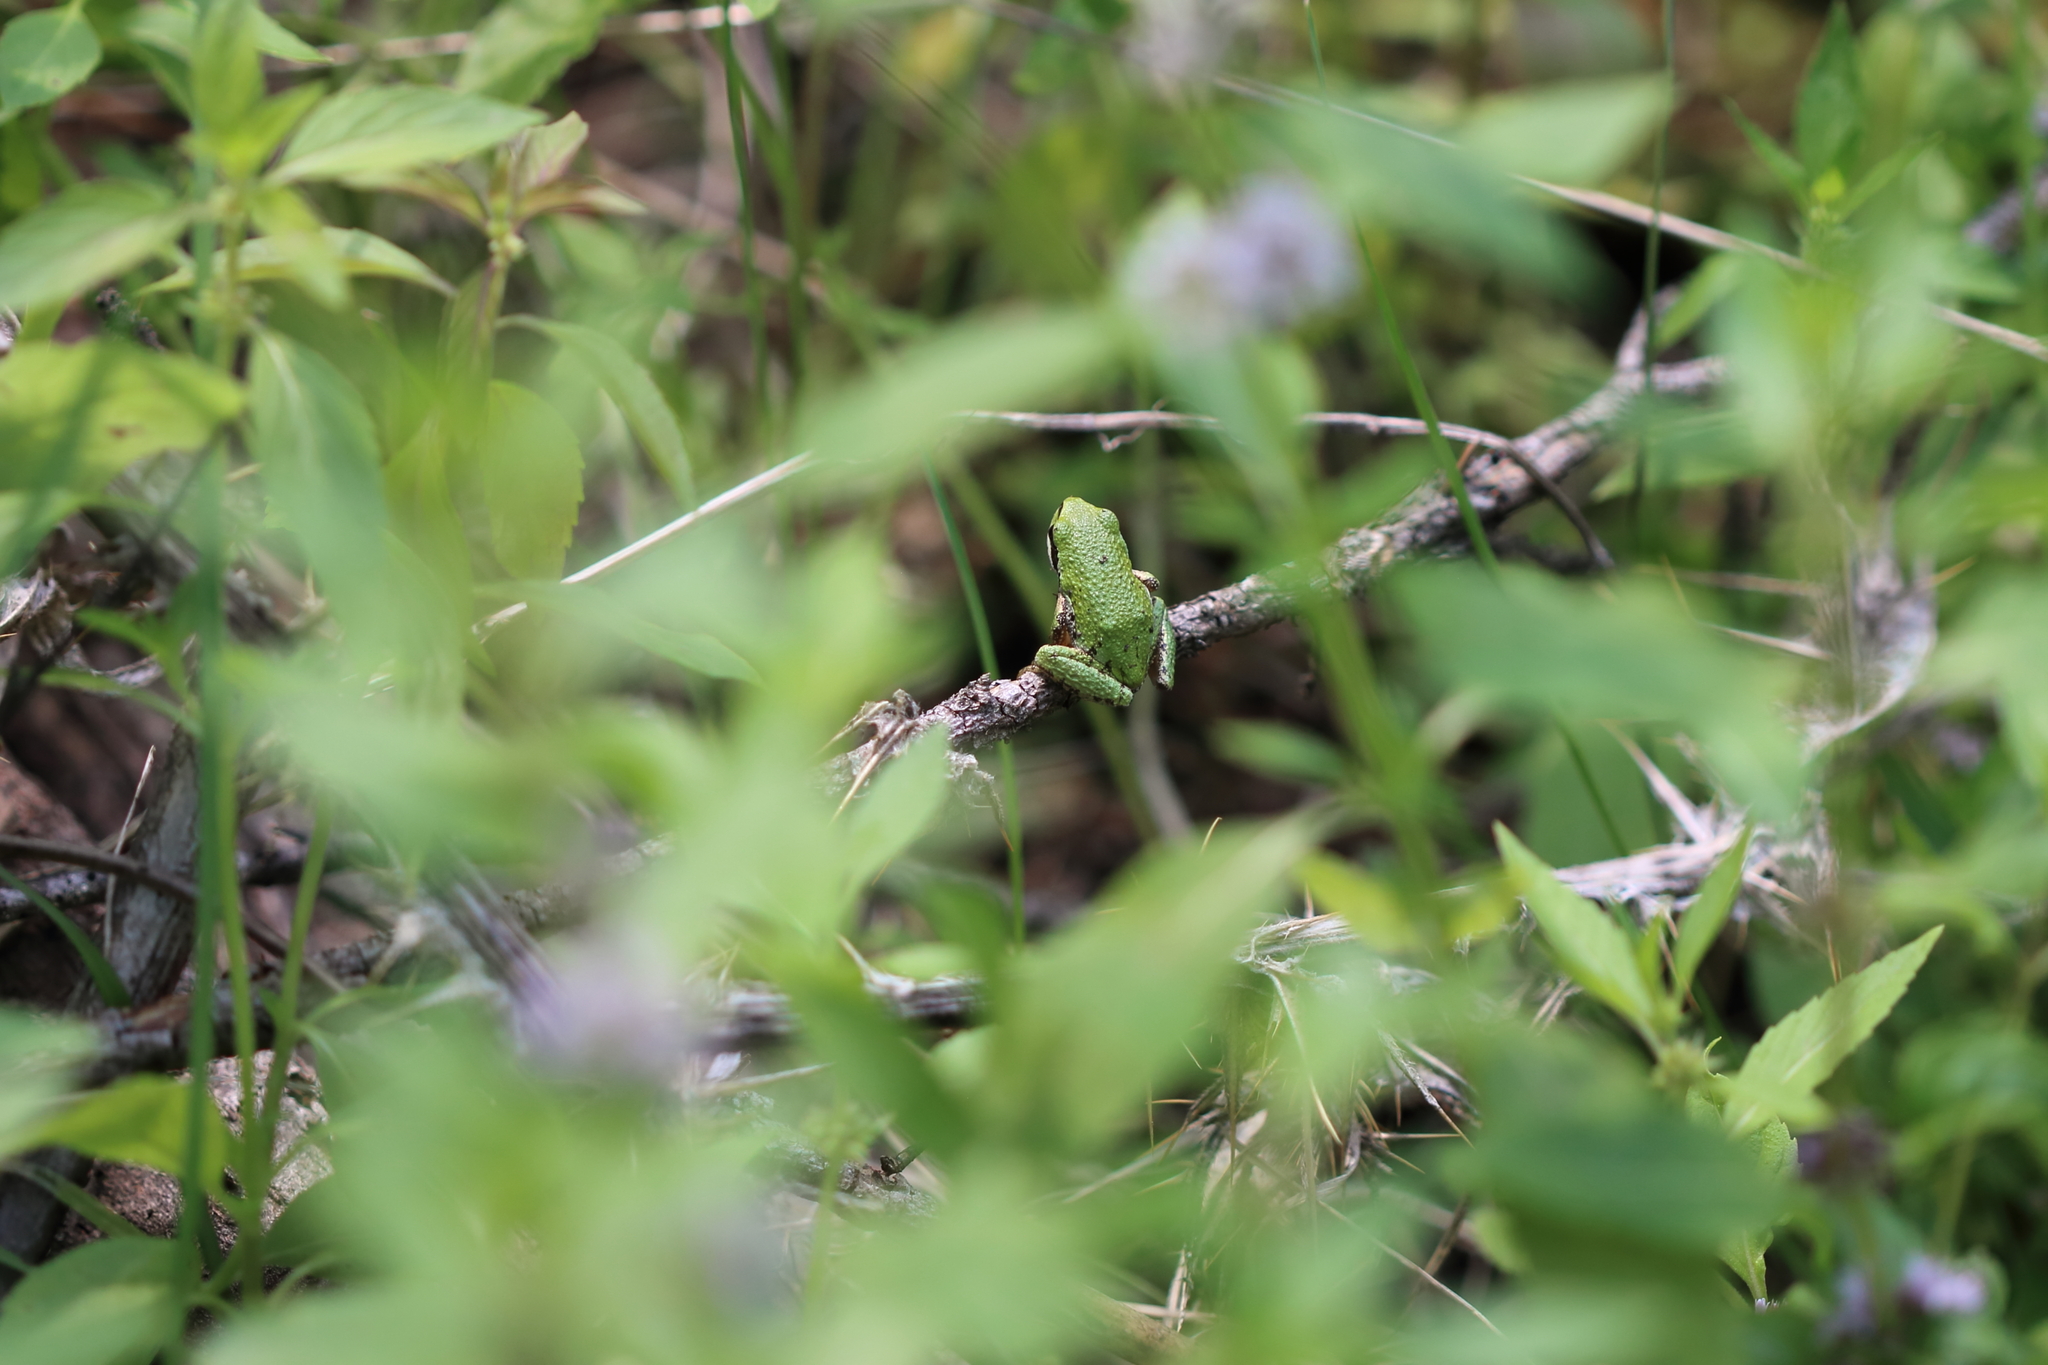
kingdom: Animalia
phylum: Chordata
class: Amphibia
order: Anura
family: Hylidae
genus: Pseudacris
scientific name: Pseudacris regilla
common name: Pacific chorus frog
